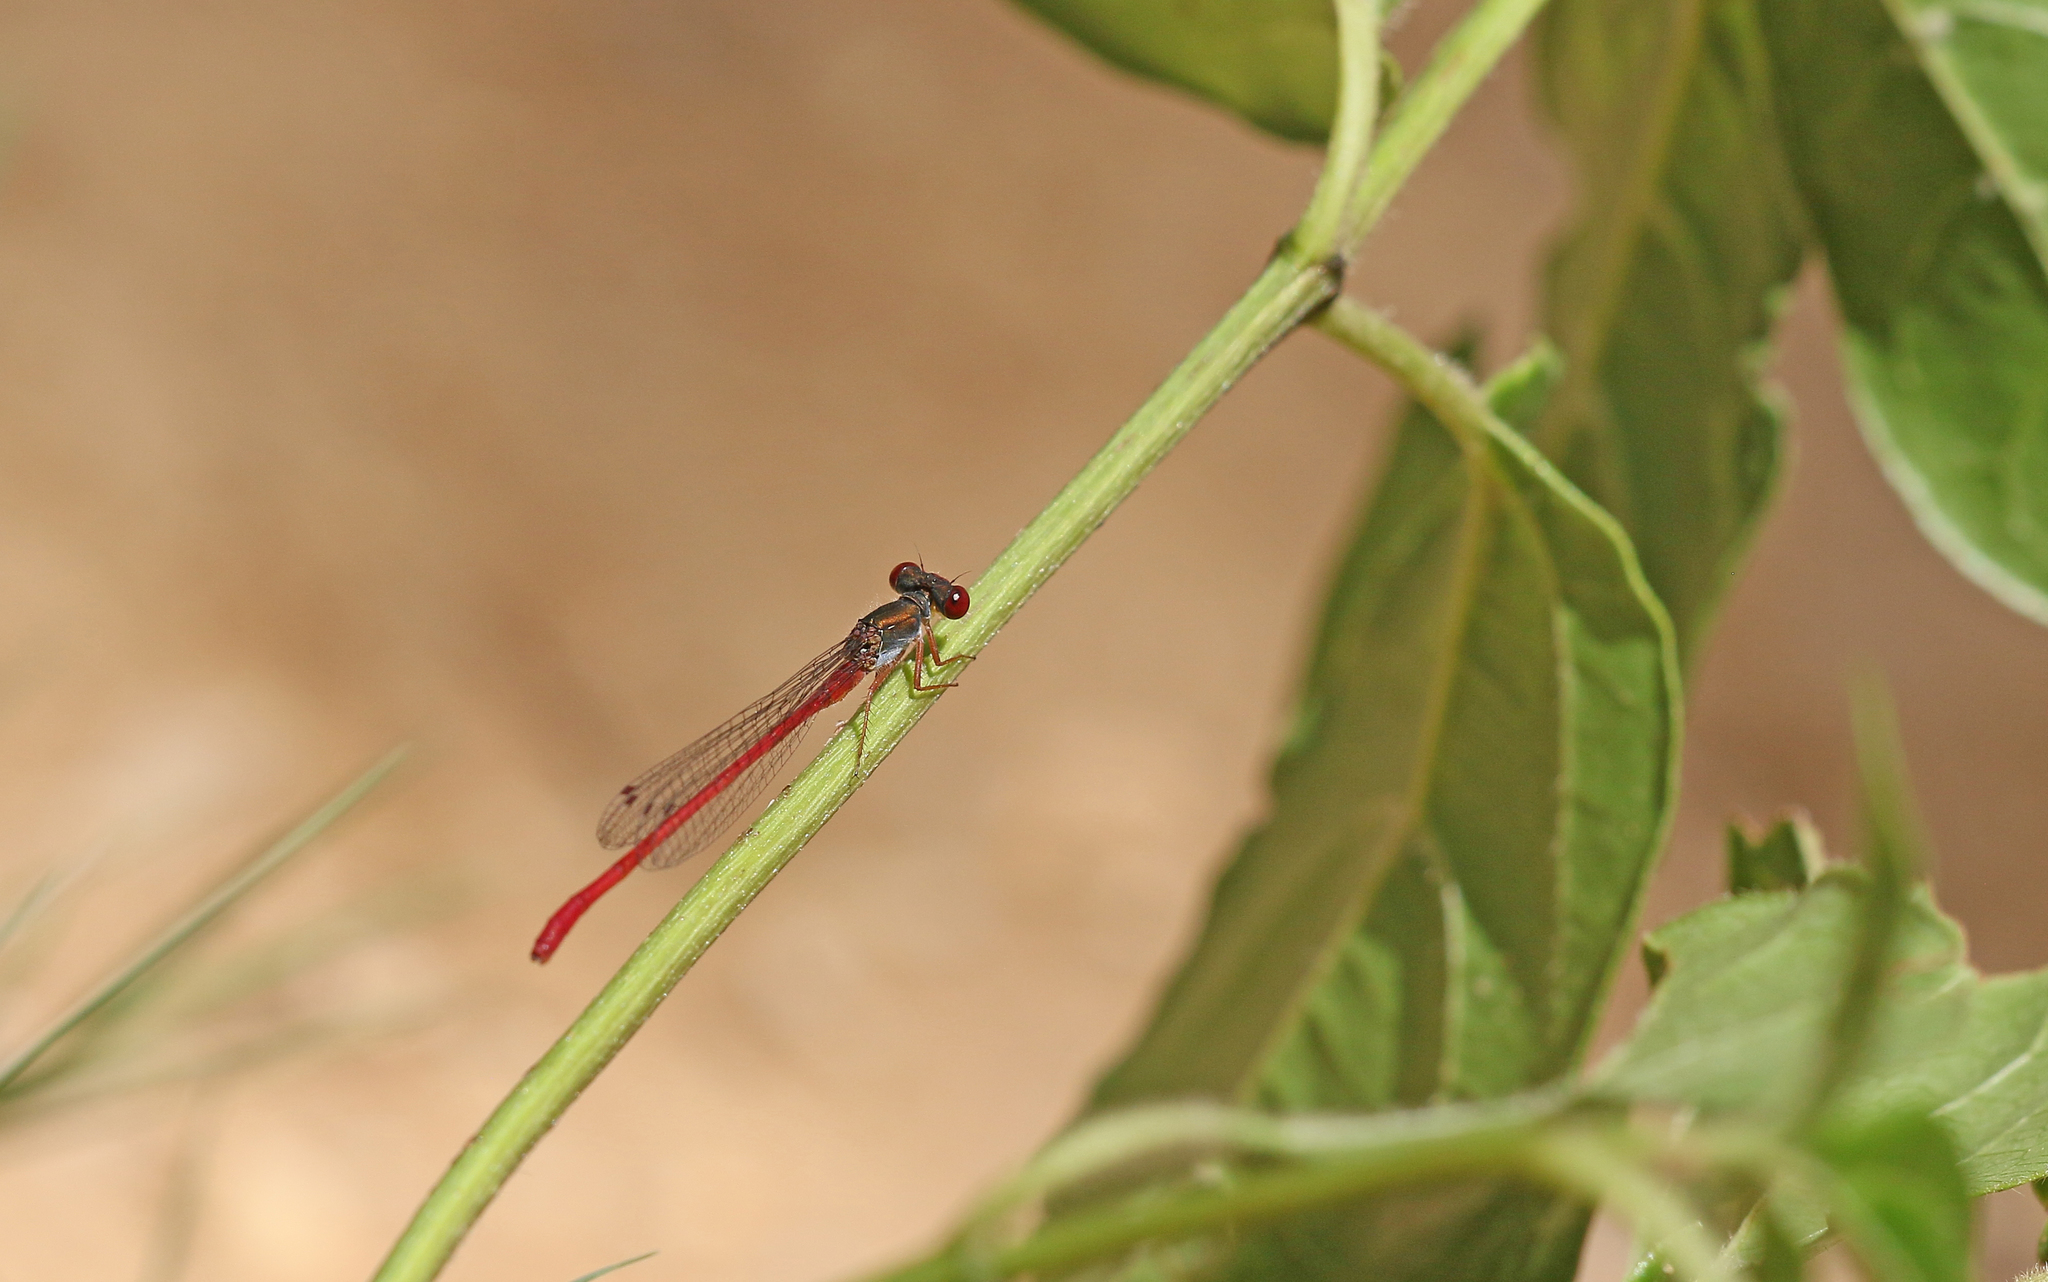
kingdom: Animalia
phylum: Arthropoda
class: Insecta
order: Odonata
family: Coenagrionidae
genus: Ceriagrion
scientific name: Ceriagrion tenellum
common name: Small red damselfly
